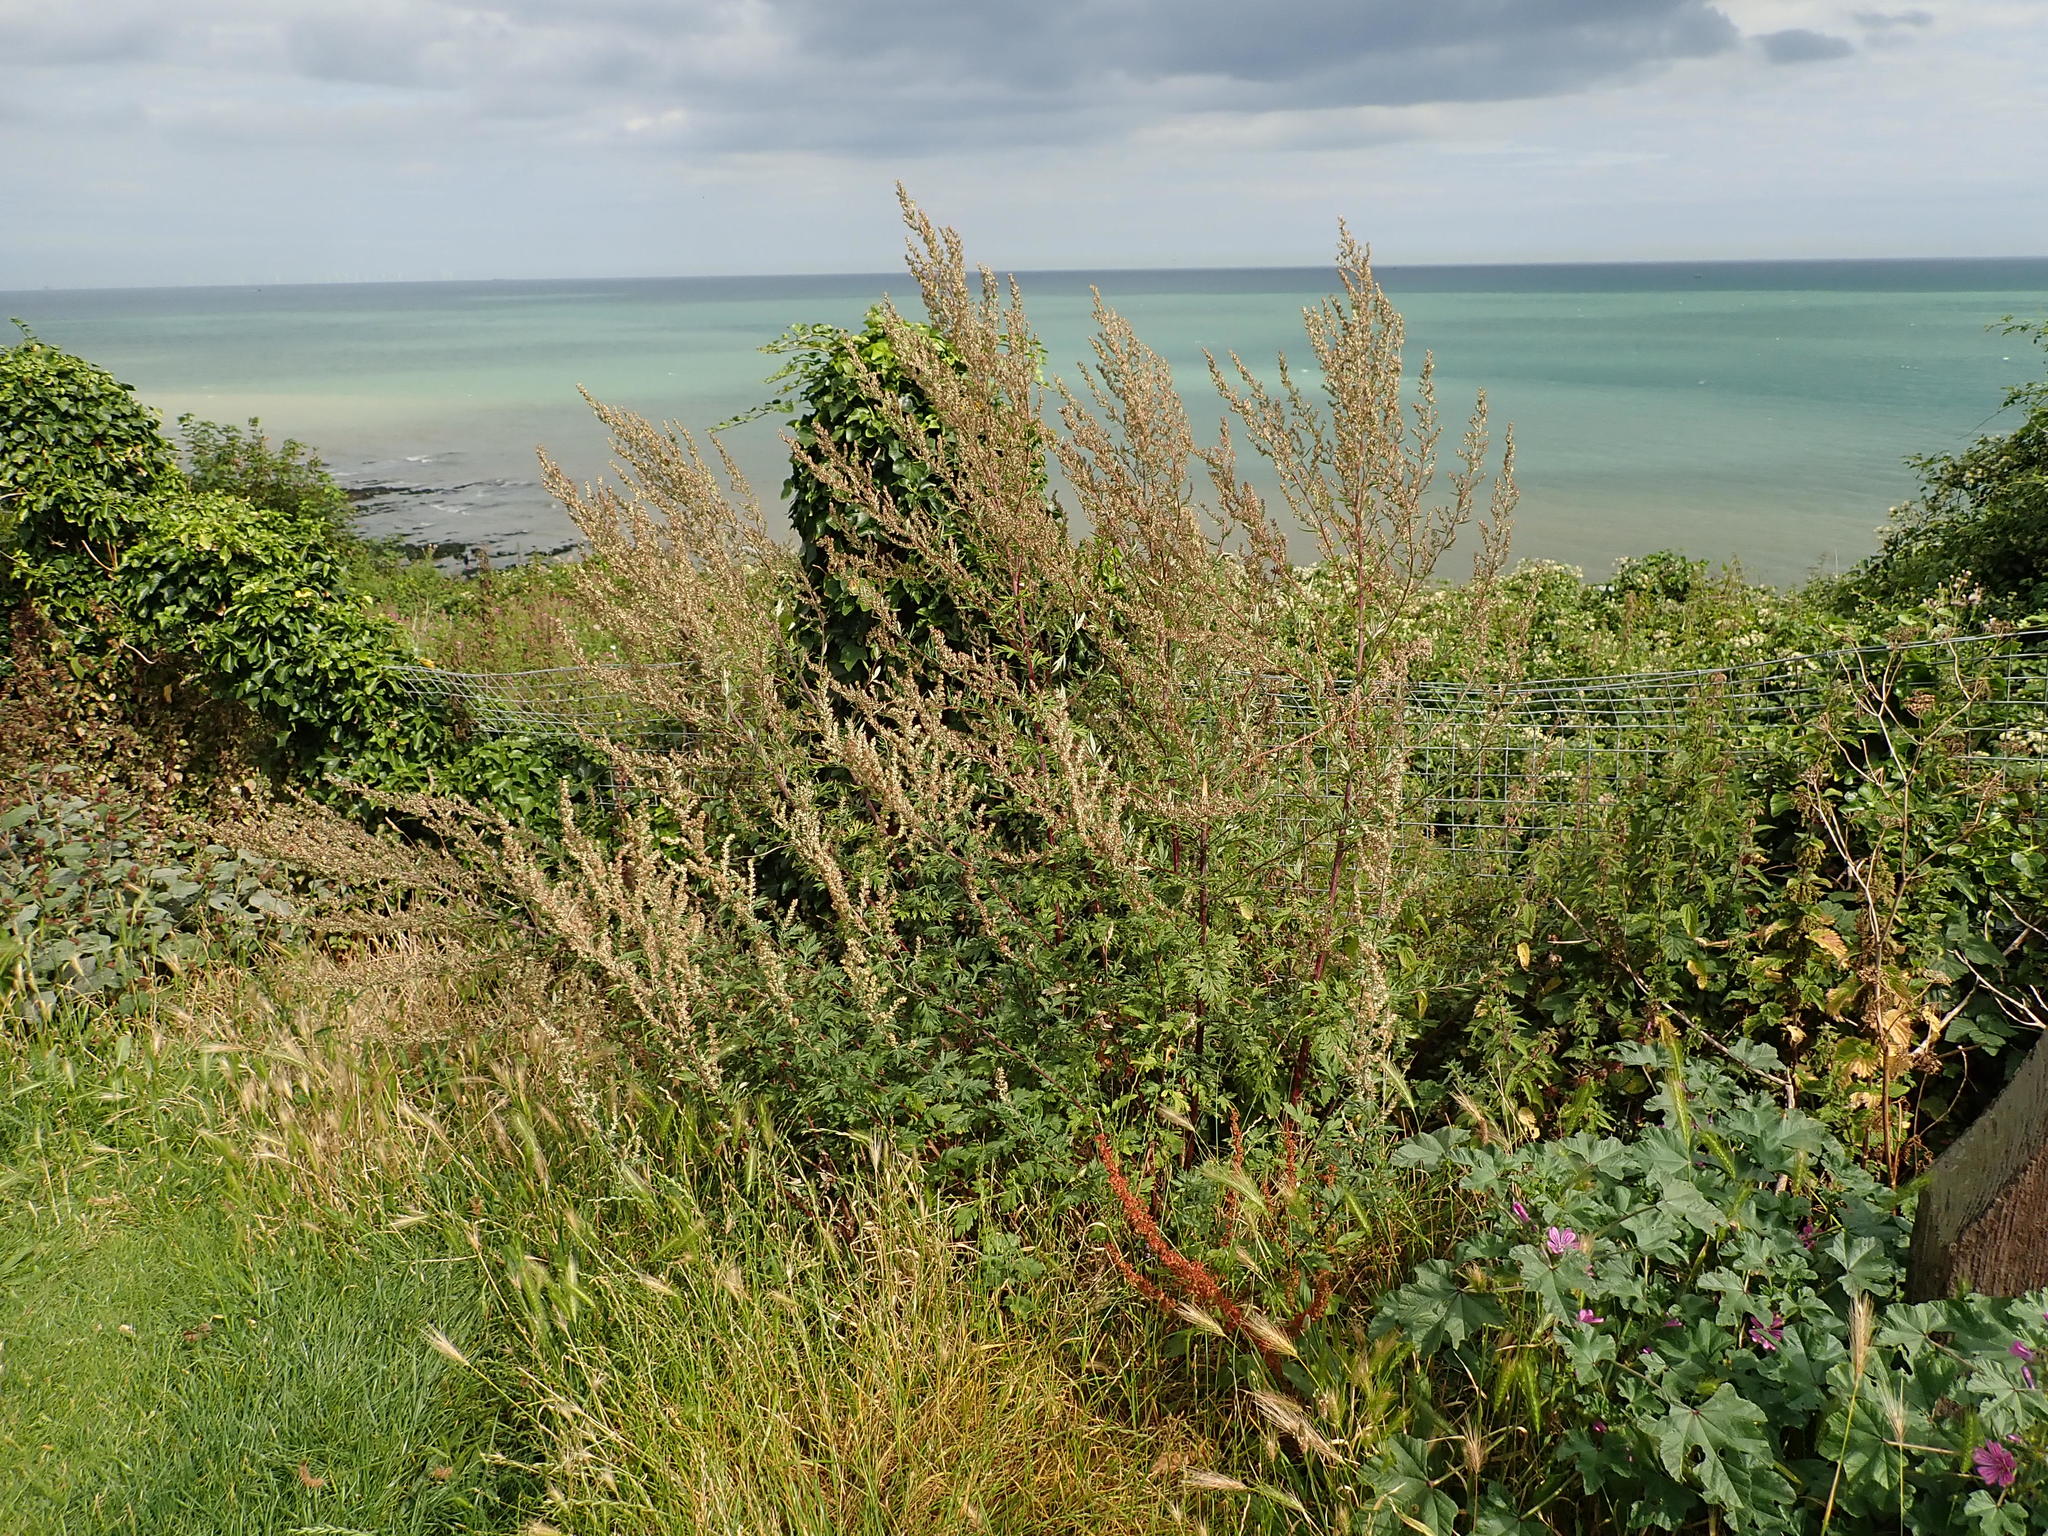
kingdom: Plantae
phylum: Tracheophyta
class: Magnoliopsida
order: Asterales
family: Asteraceae
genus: Artemisia
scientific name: Artemisia vulgaris
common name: Mugwort
